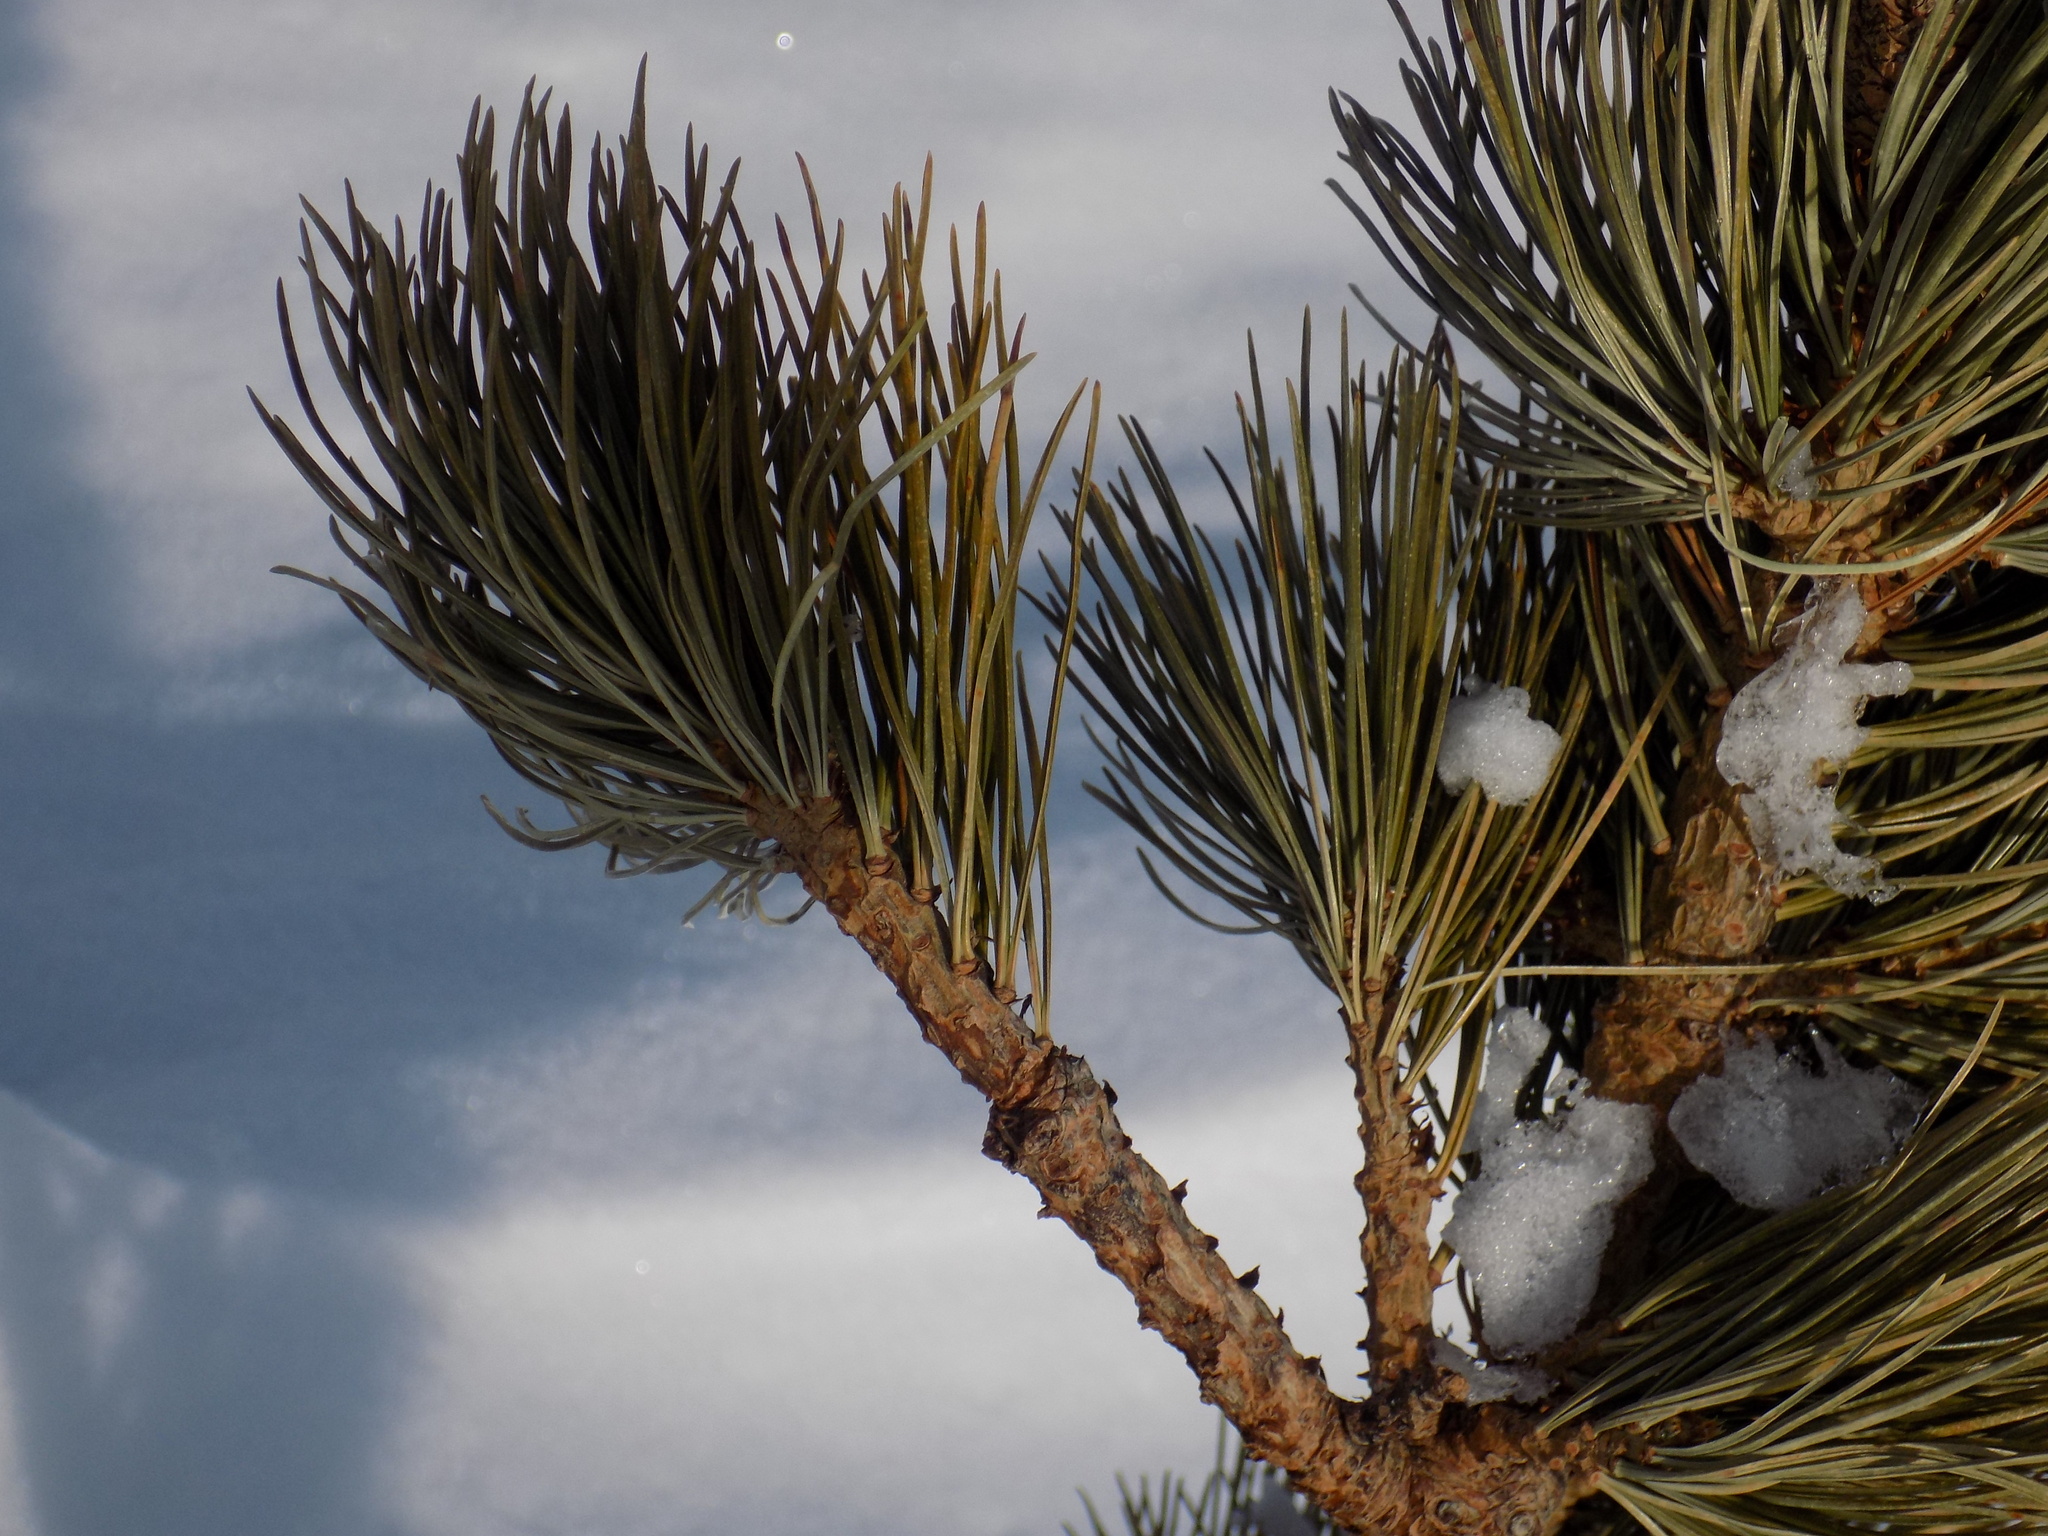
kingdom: Plantae
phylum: Tracheophyta
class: Pinopsida
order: Pinales
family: Pinaceae
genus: Pinus
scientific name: Pinus sibirica
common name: Siberian pine
